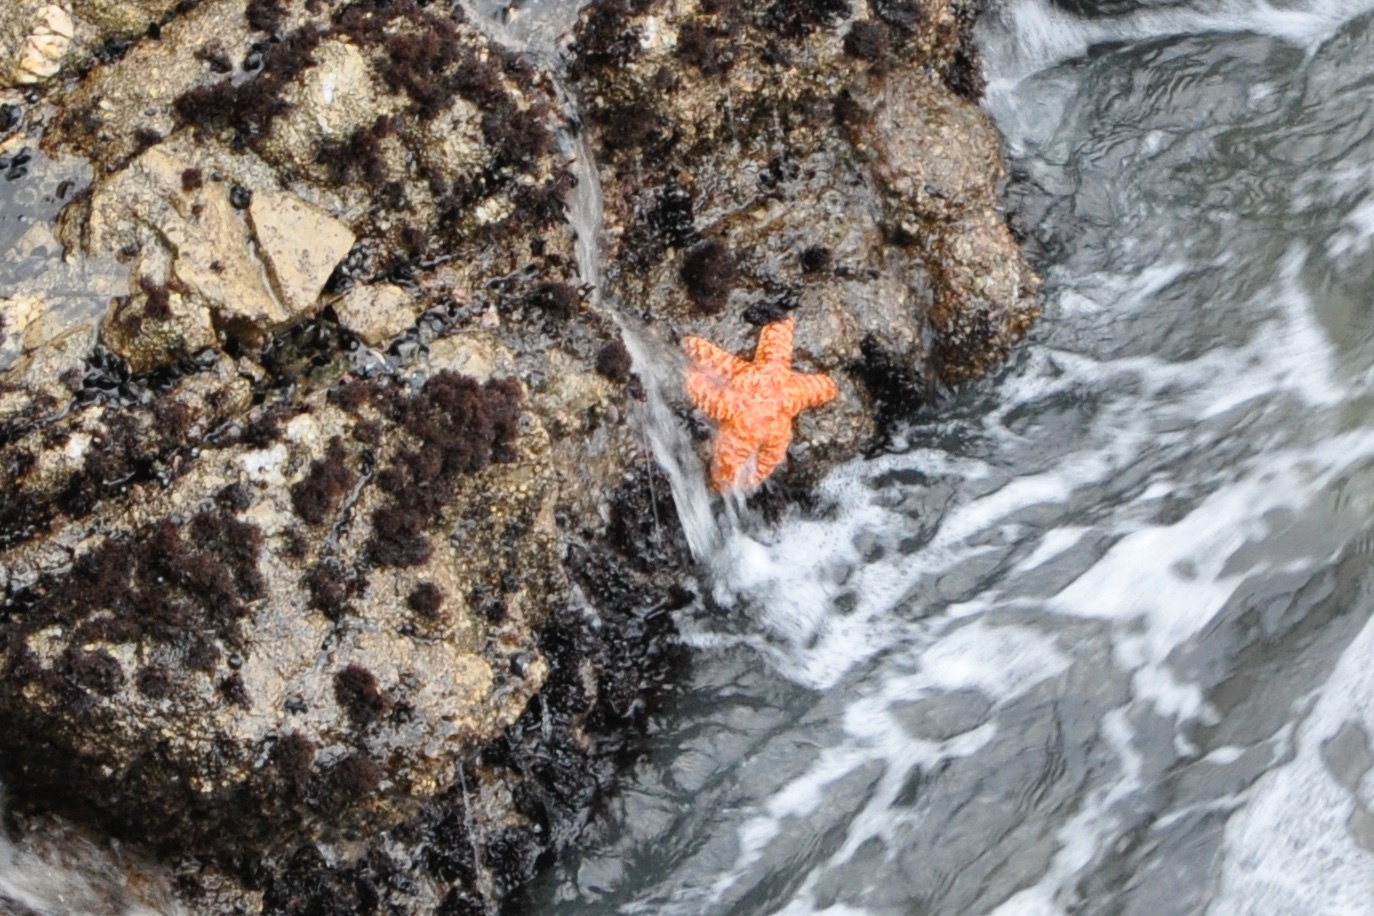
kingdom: Animalia
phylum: Echinodermata
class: Asteroidea
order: Forcipulatida
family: Asteriidae
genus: Pisaster
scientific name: Pisaster ochraceus
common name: Ochre stars
